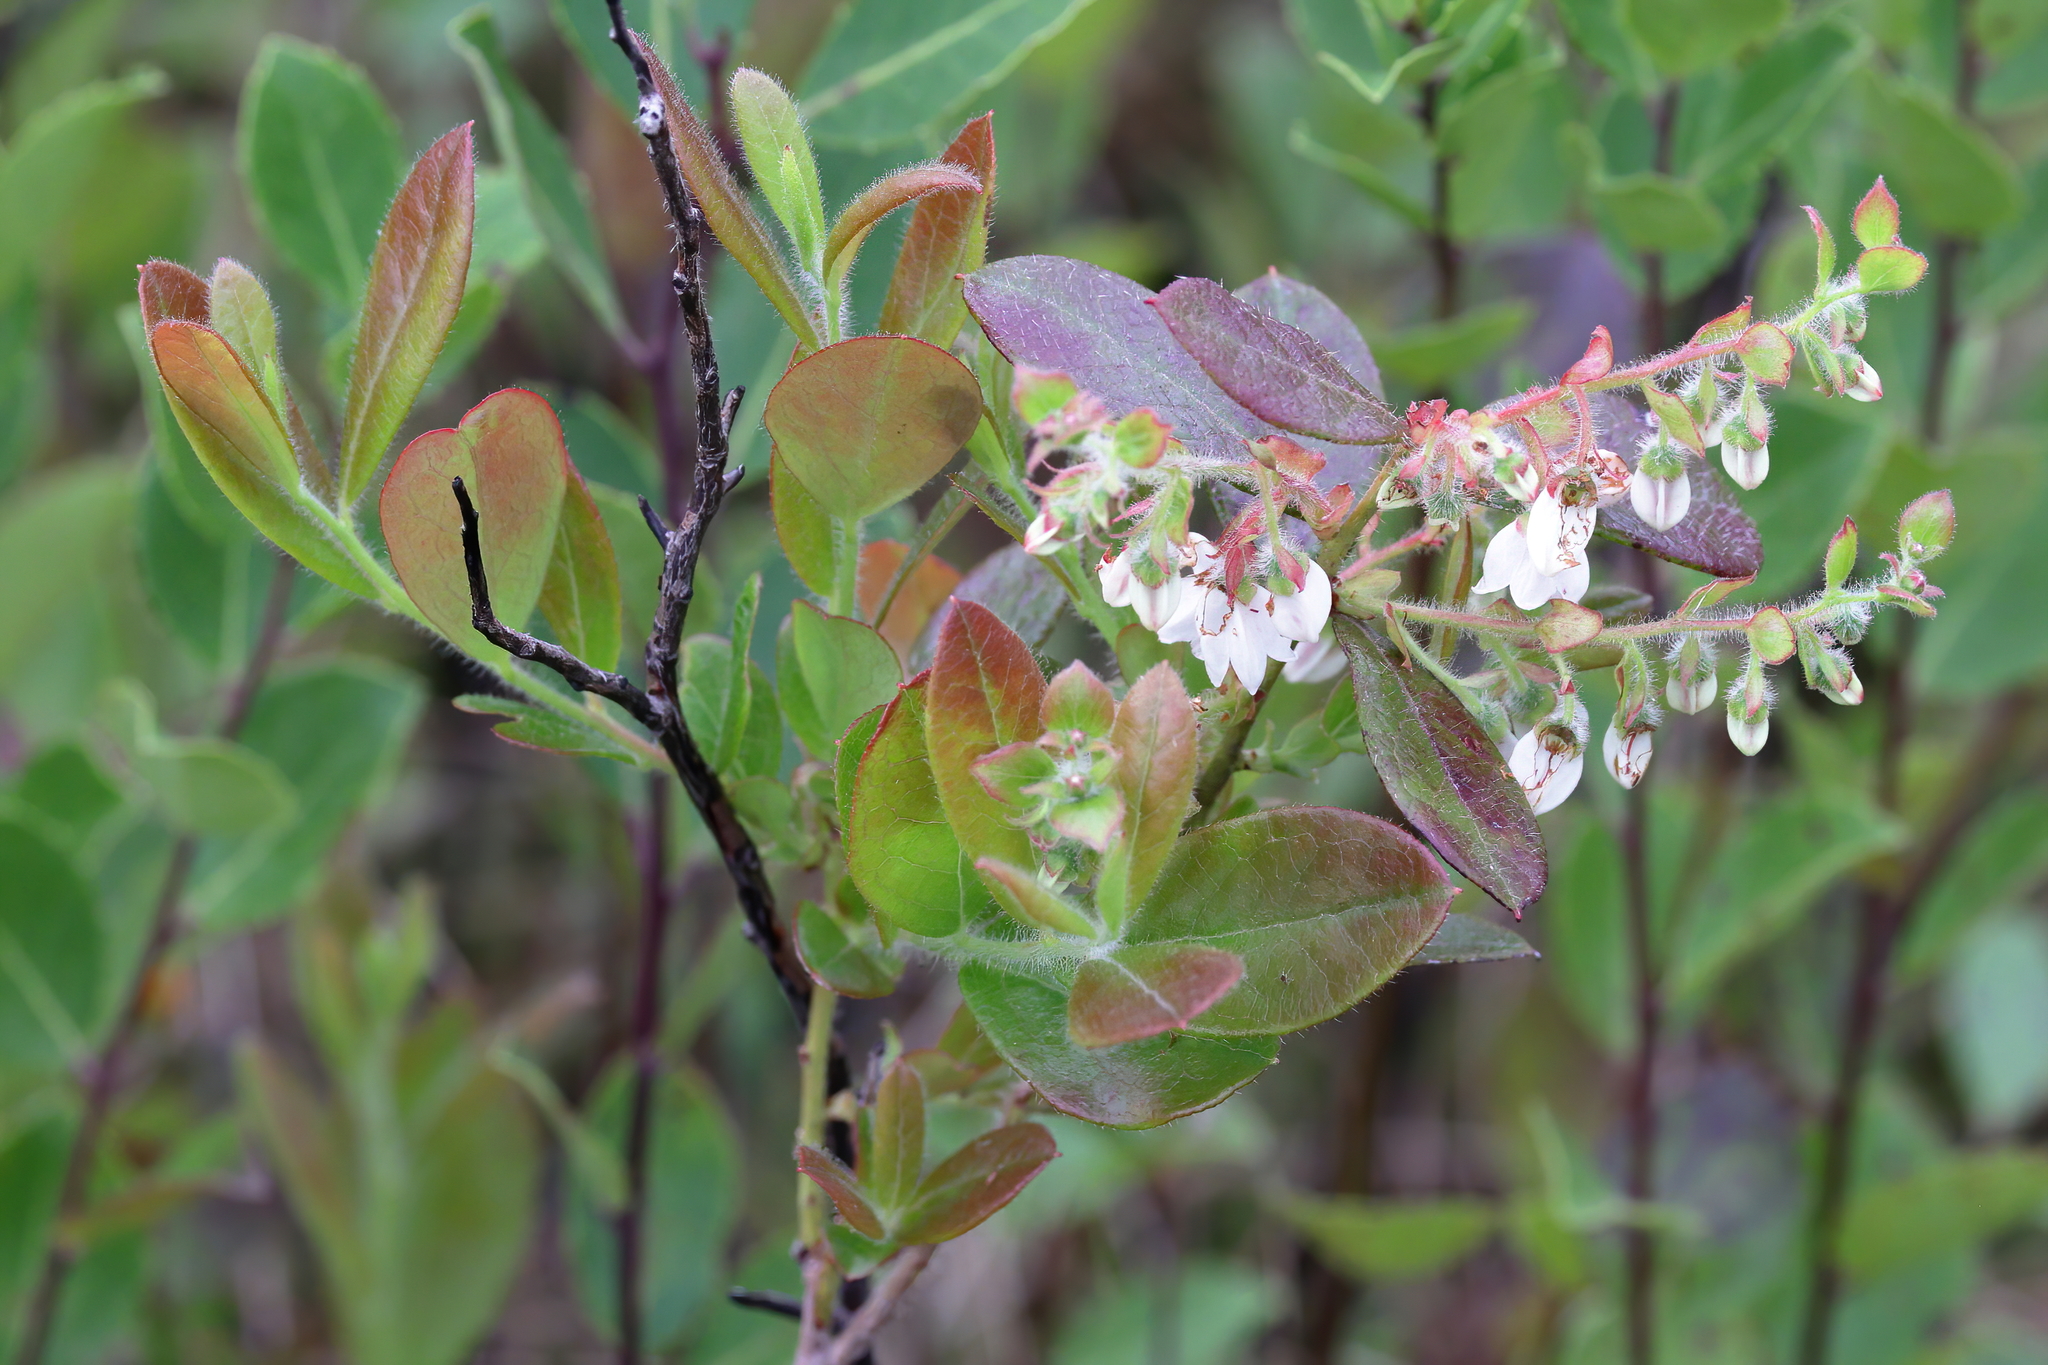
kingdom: Plantae
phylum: Tracheophyta
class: Magnoliopsida
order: Ericales
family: Ericaceae
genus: Gaylussacia
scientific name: Gaylussacia mosieri
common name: Hirsute huckleberry
